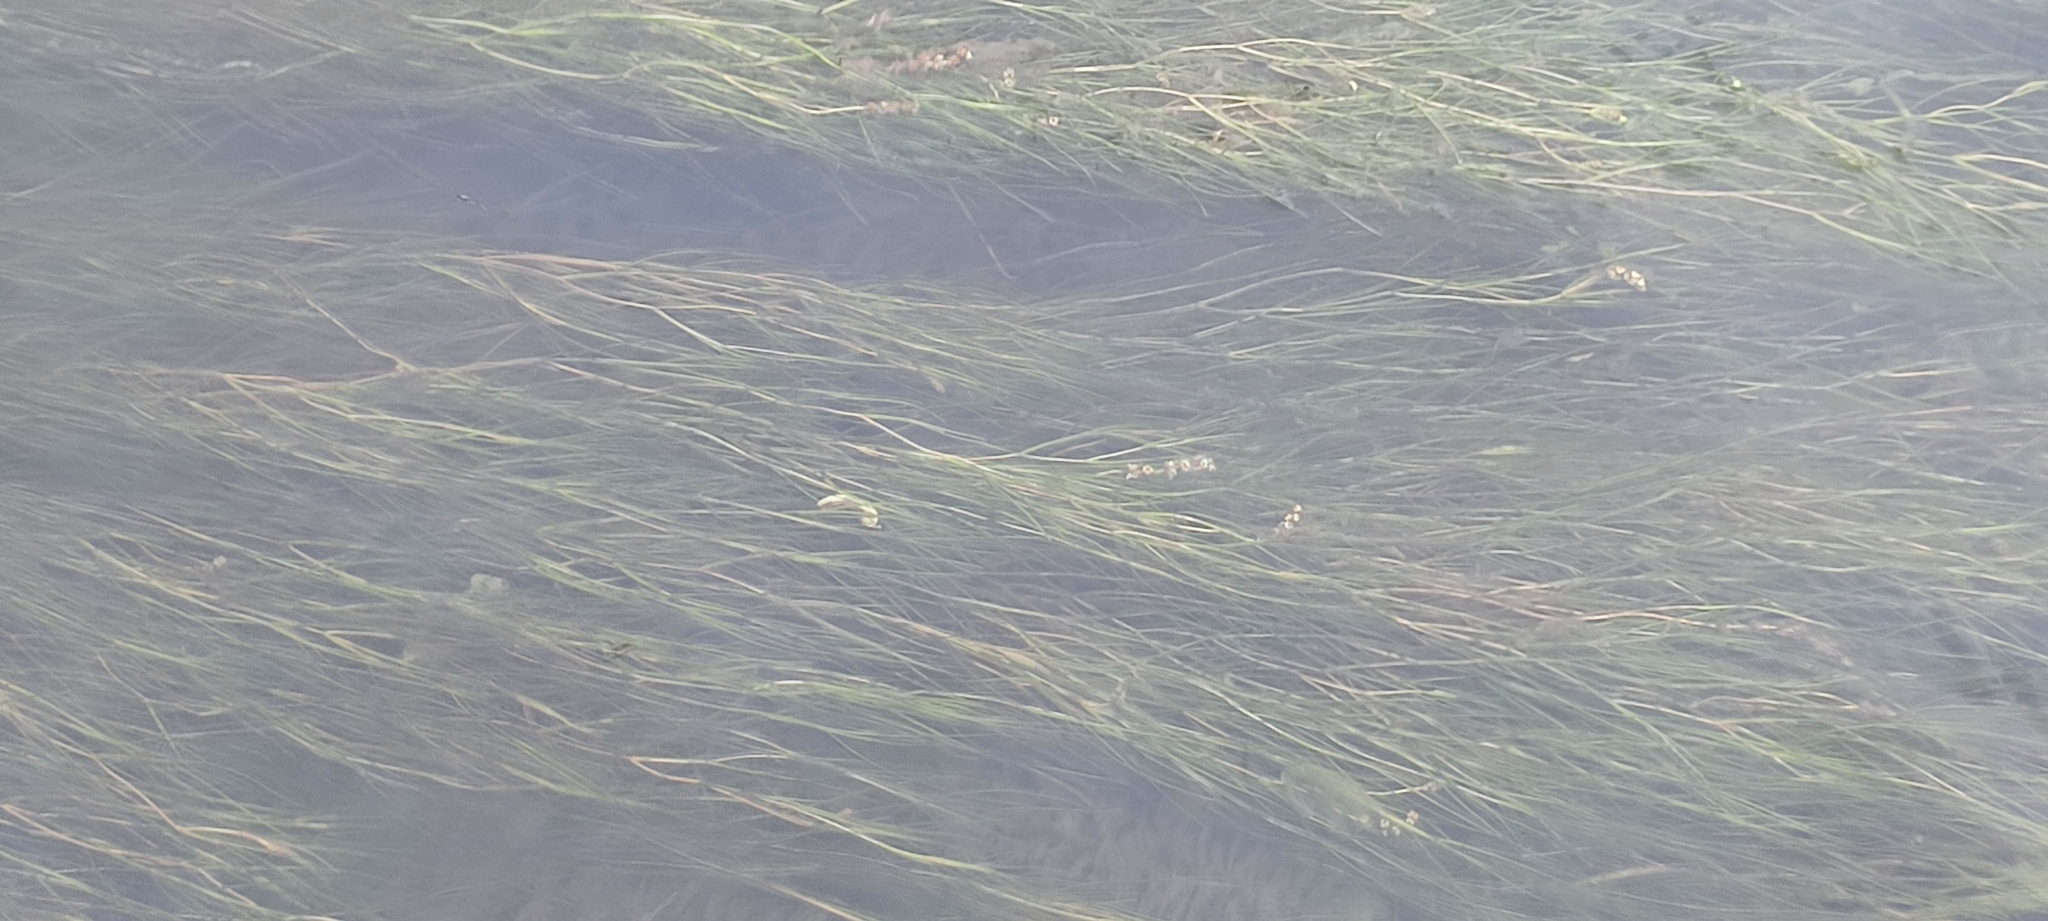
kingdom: Plantae
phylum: Tracheophyta
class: Liliopsida
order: Alismatales
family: Potamogetonaceae
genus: Stuckenia
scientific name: Stuckenia pectinata
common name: Sago pondweed
